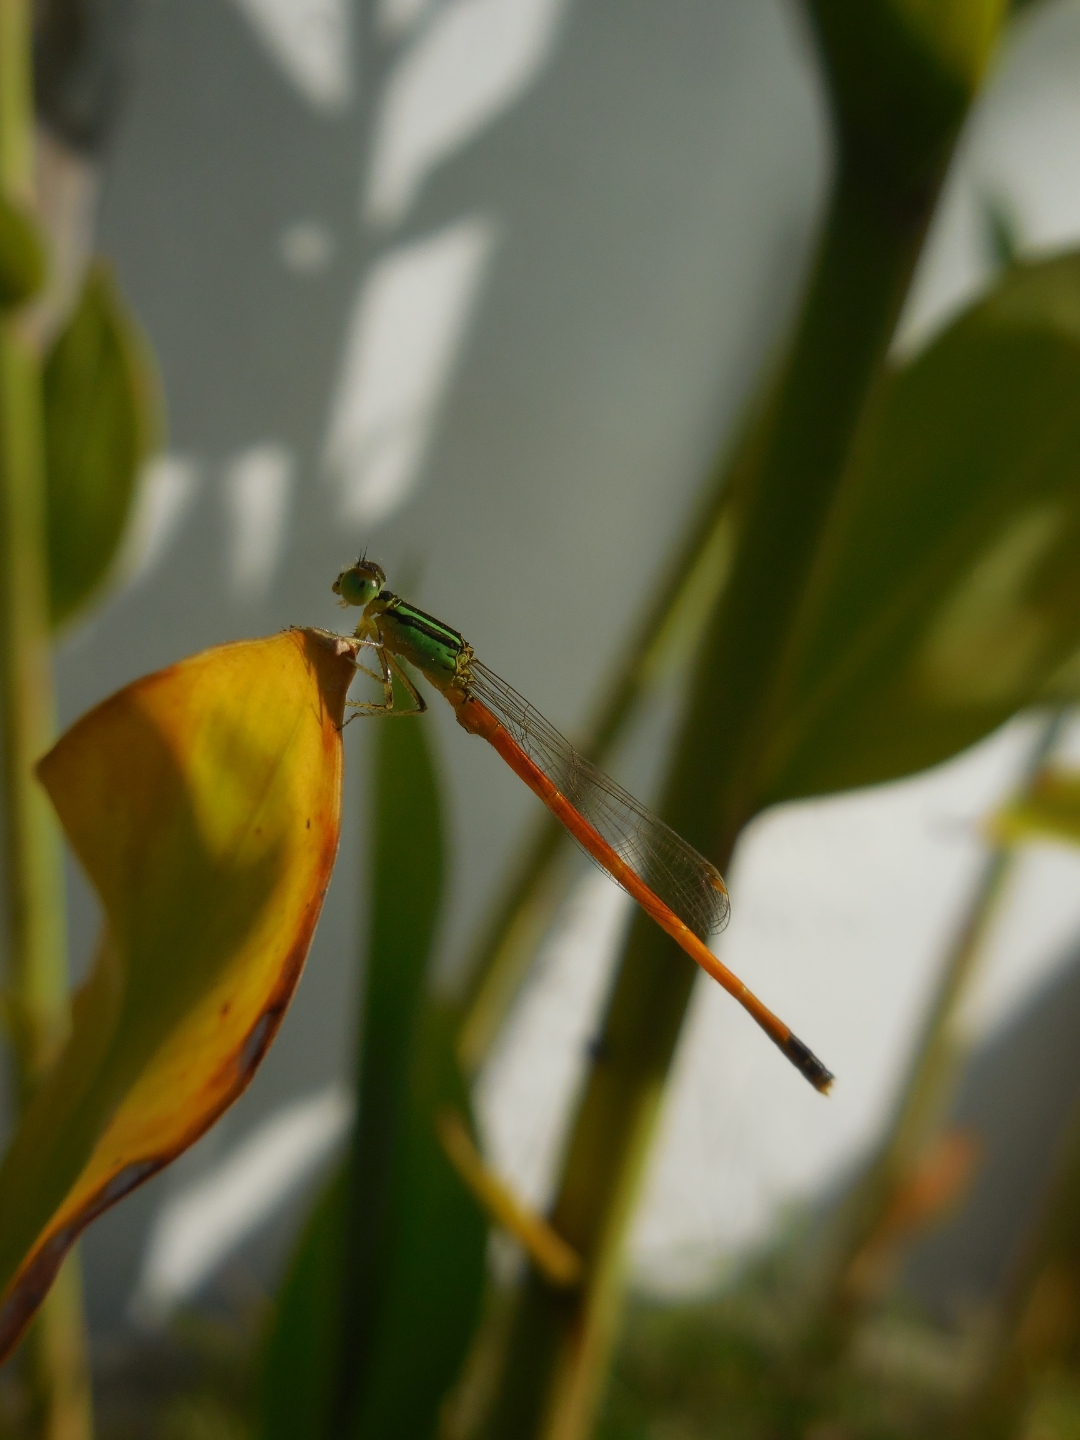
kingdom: Animalia
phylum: Arthropoda
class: Insecta
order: Odonata
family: Coenagrionidae
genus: Ischnura
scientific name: Ischnura rufostigma
